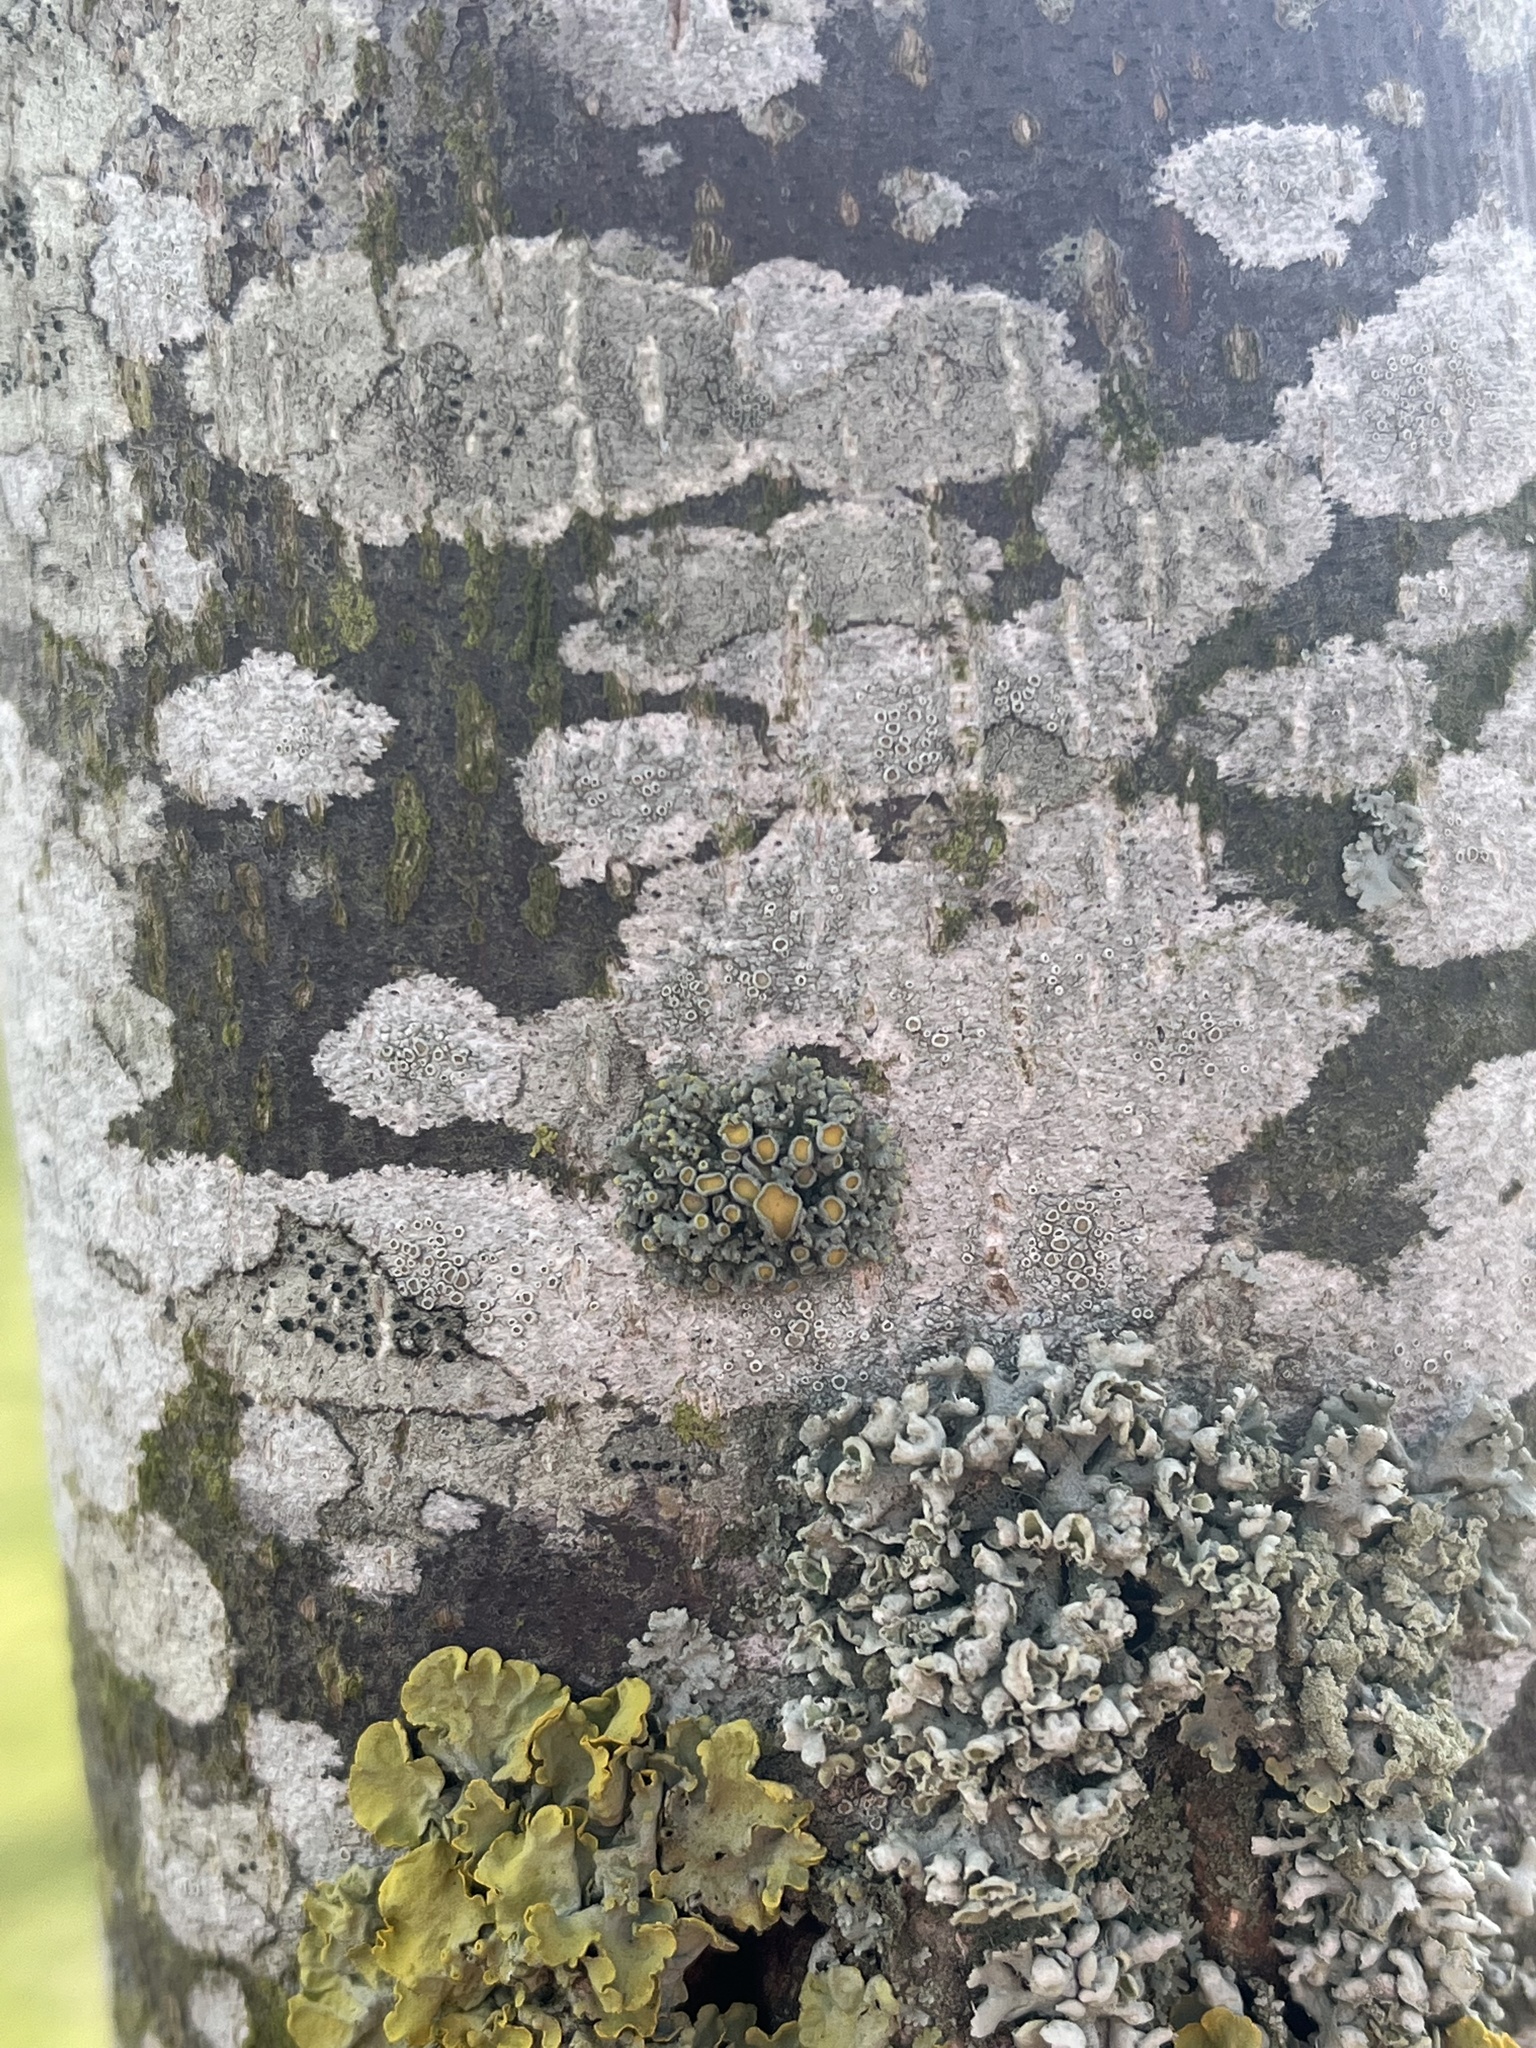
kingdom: Fungi
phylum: Ascomycota
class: Lecanoromycetes
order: Teloschistales
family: Teloschistaceae
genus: Polycauliona
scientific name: Polycauliona polycarpa
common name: Pin-cushion sunburst lichen
